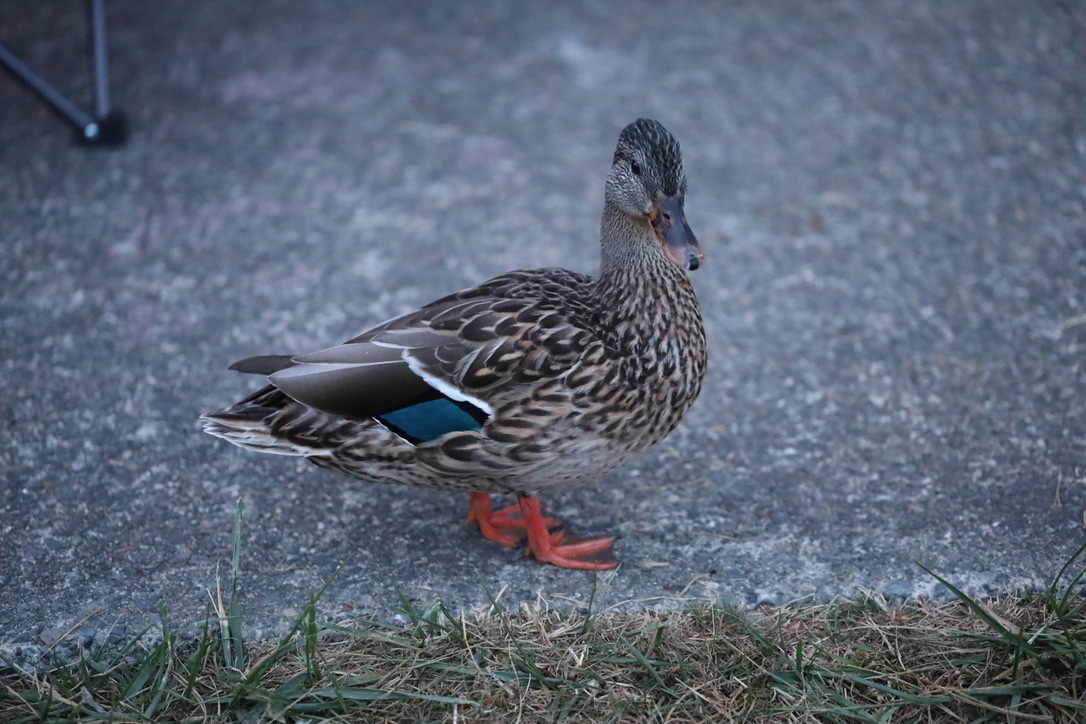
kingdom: Animalia
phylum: Chordata
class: Aves
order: Anseriformes
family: Anatidae
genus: Anas
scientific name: Anas platyrhynchos
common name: Mallard
